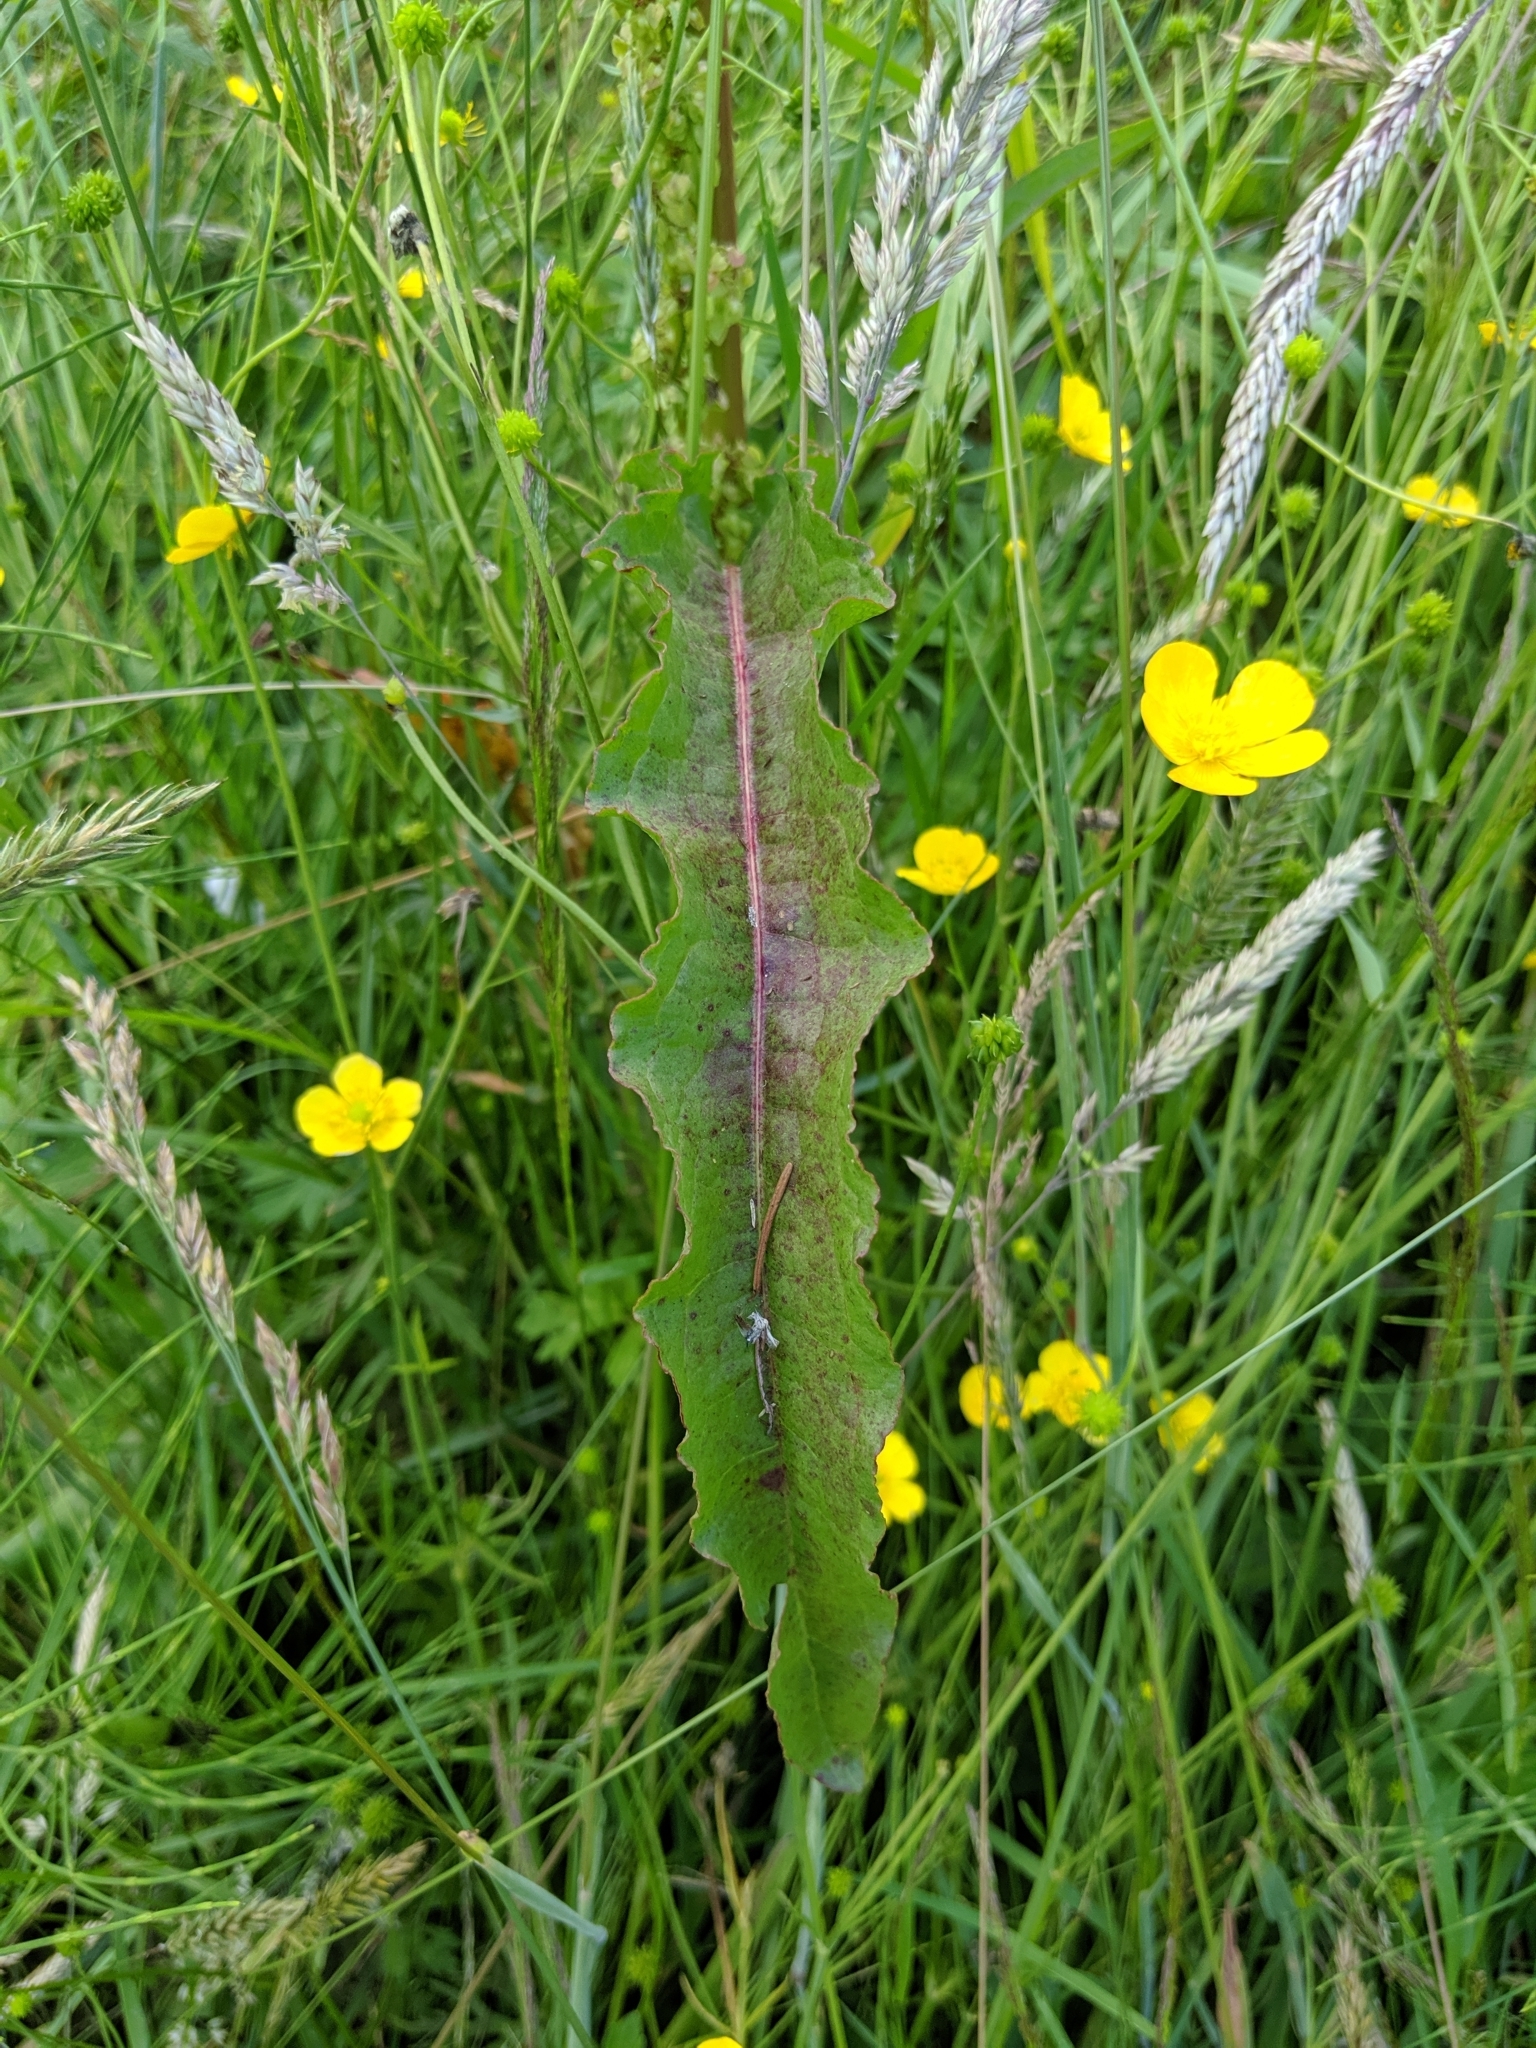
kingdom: Plantae
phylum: Tracheophyta
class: Magnoliopsida
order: Caryophyllales
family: Polygonaceae
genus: Rumex
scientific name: Rumex crispus
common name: Curled dock
